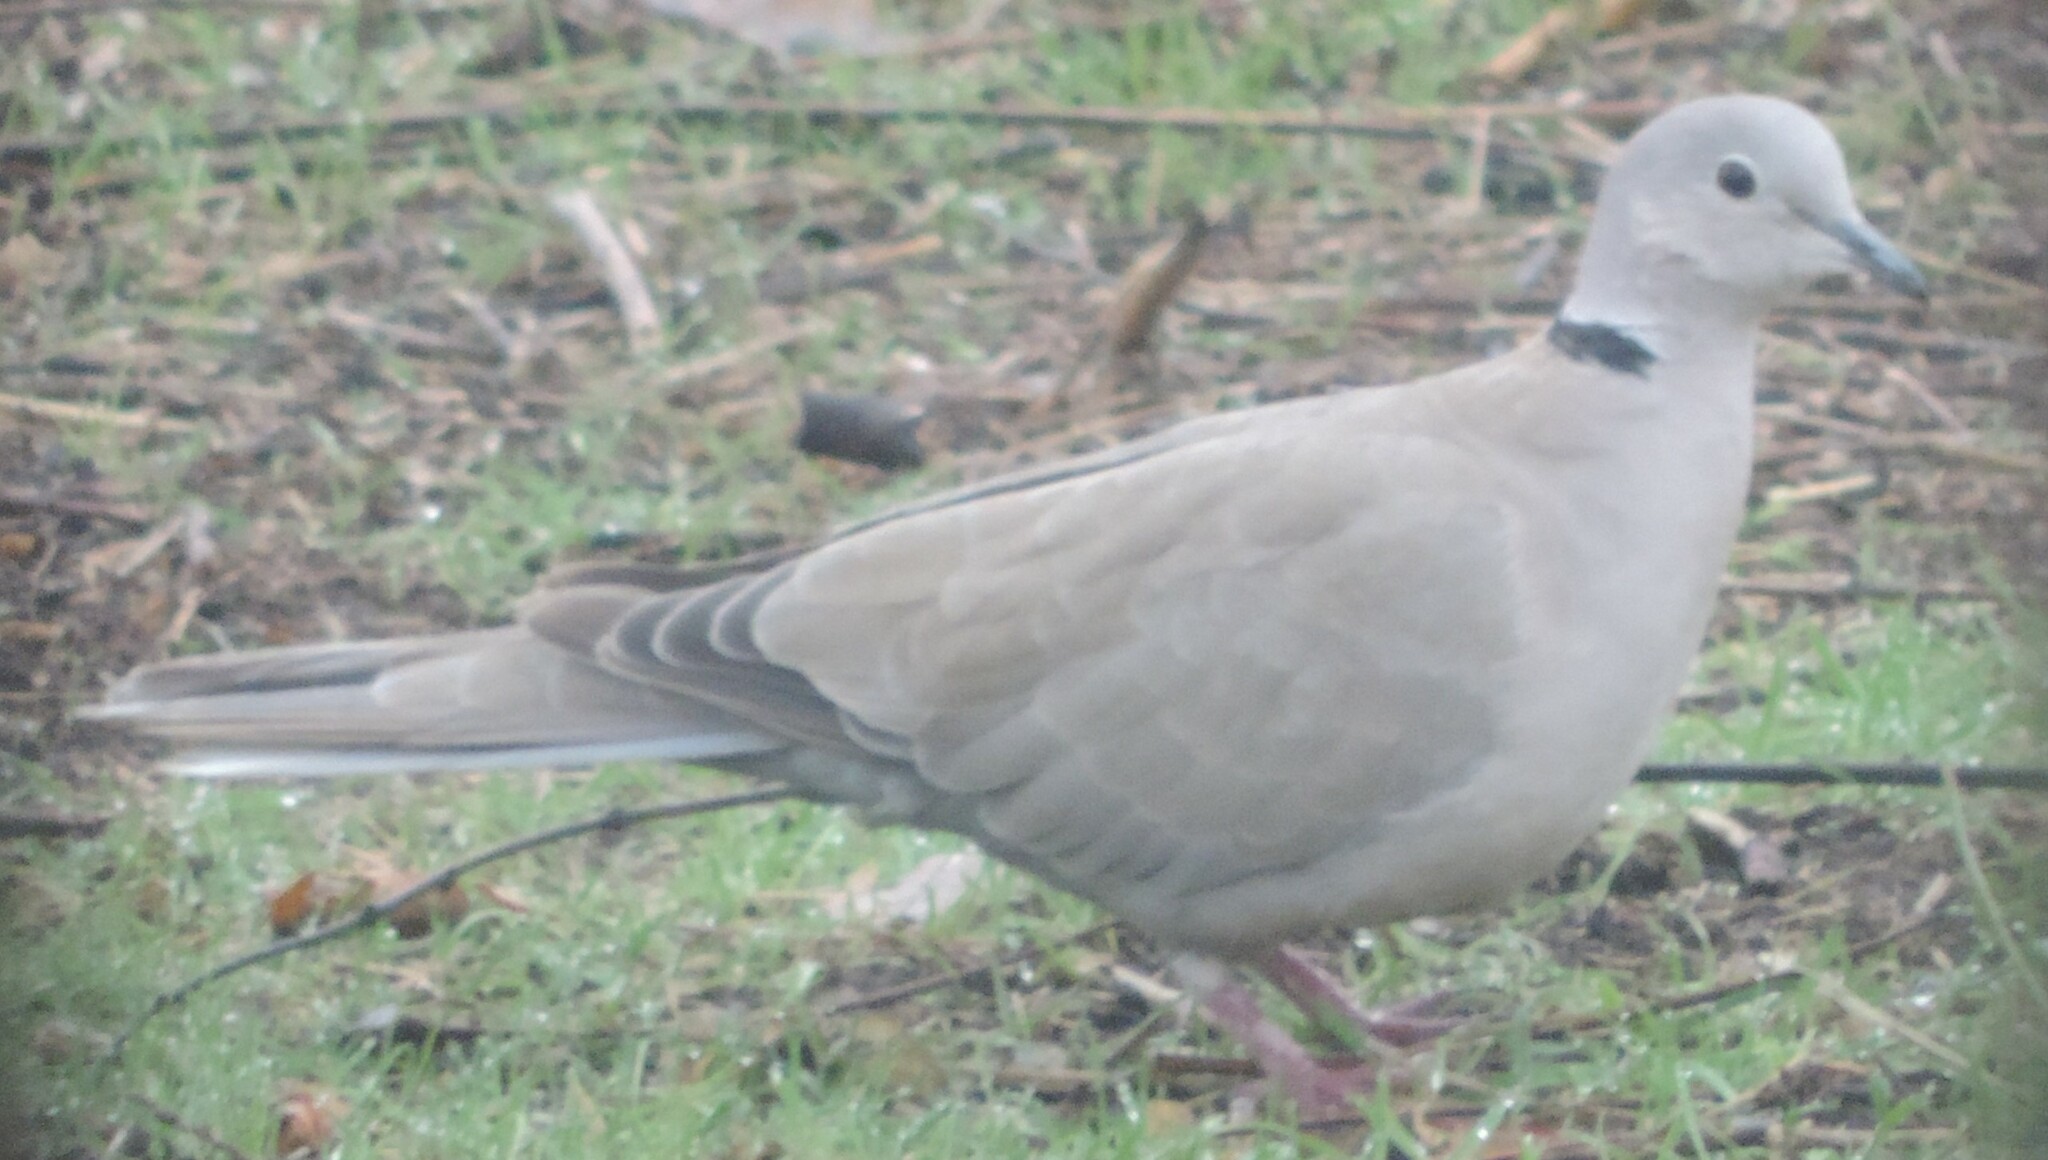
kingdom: Animalia
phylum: Chordata
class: Aves
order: Columbiformes
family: Columbidae
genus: Streptopelia
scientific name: Streptopelia decaocto
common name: Eurasian collared dove
